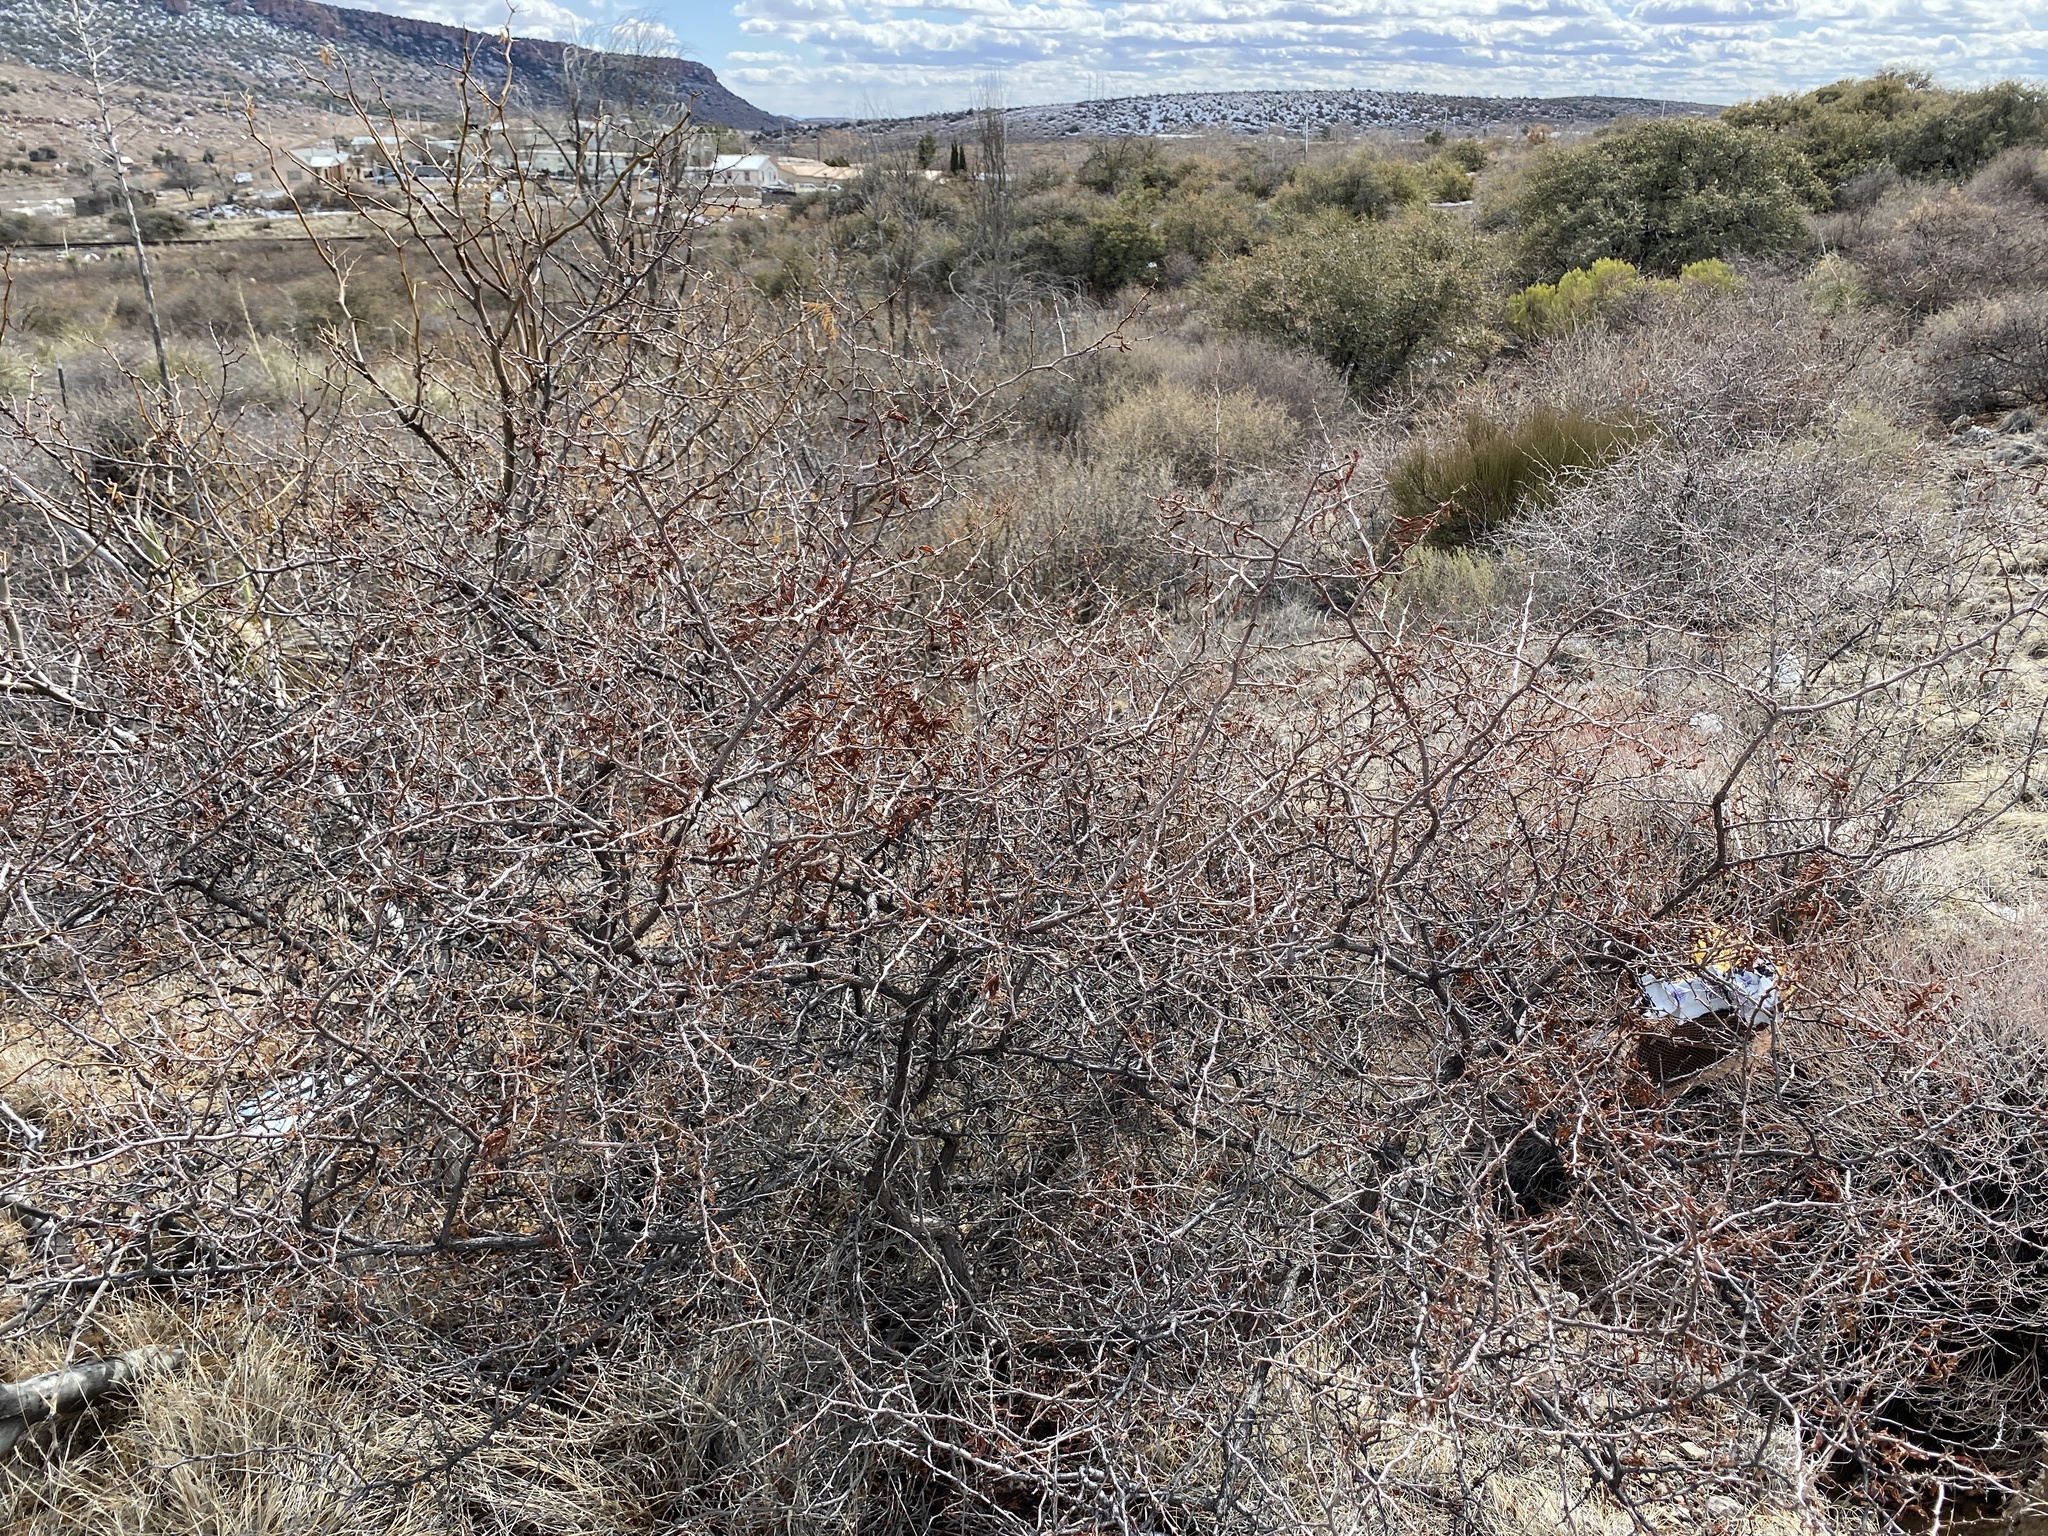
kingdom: Plantae
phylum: Tracheophyta
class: Magnoliopsida
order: Fabales
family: Fabaceae
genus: Mimosa
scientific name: Mimosa aculeaticarpa
